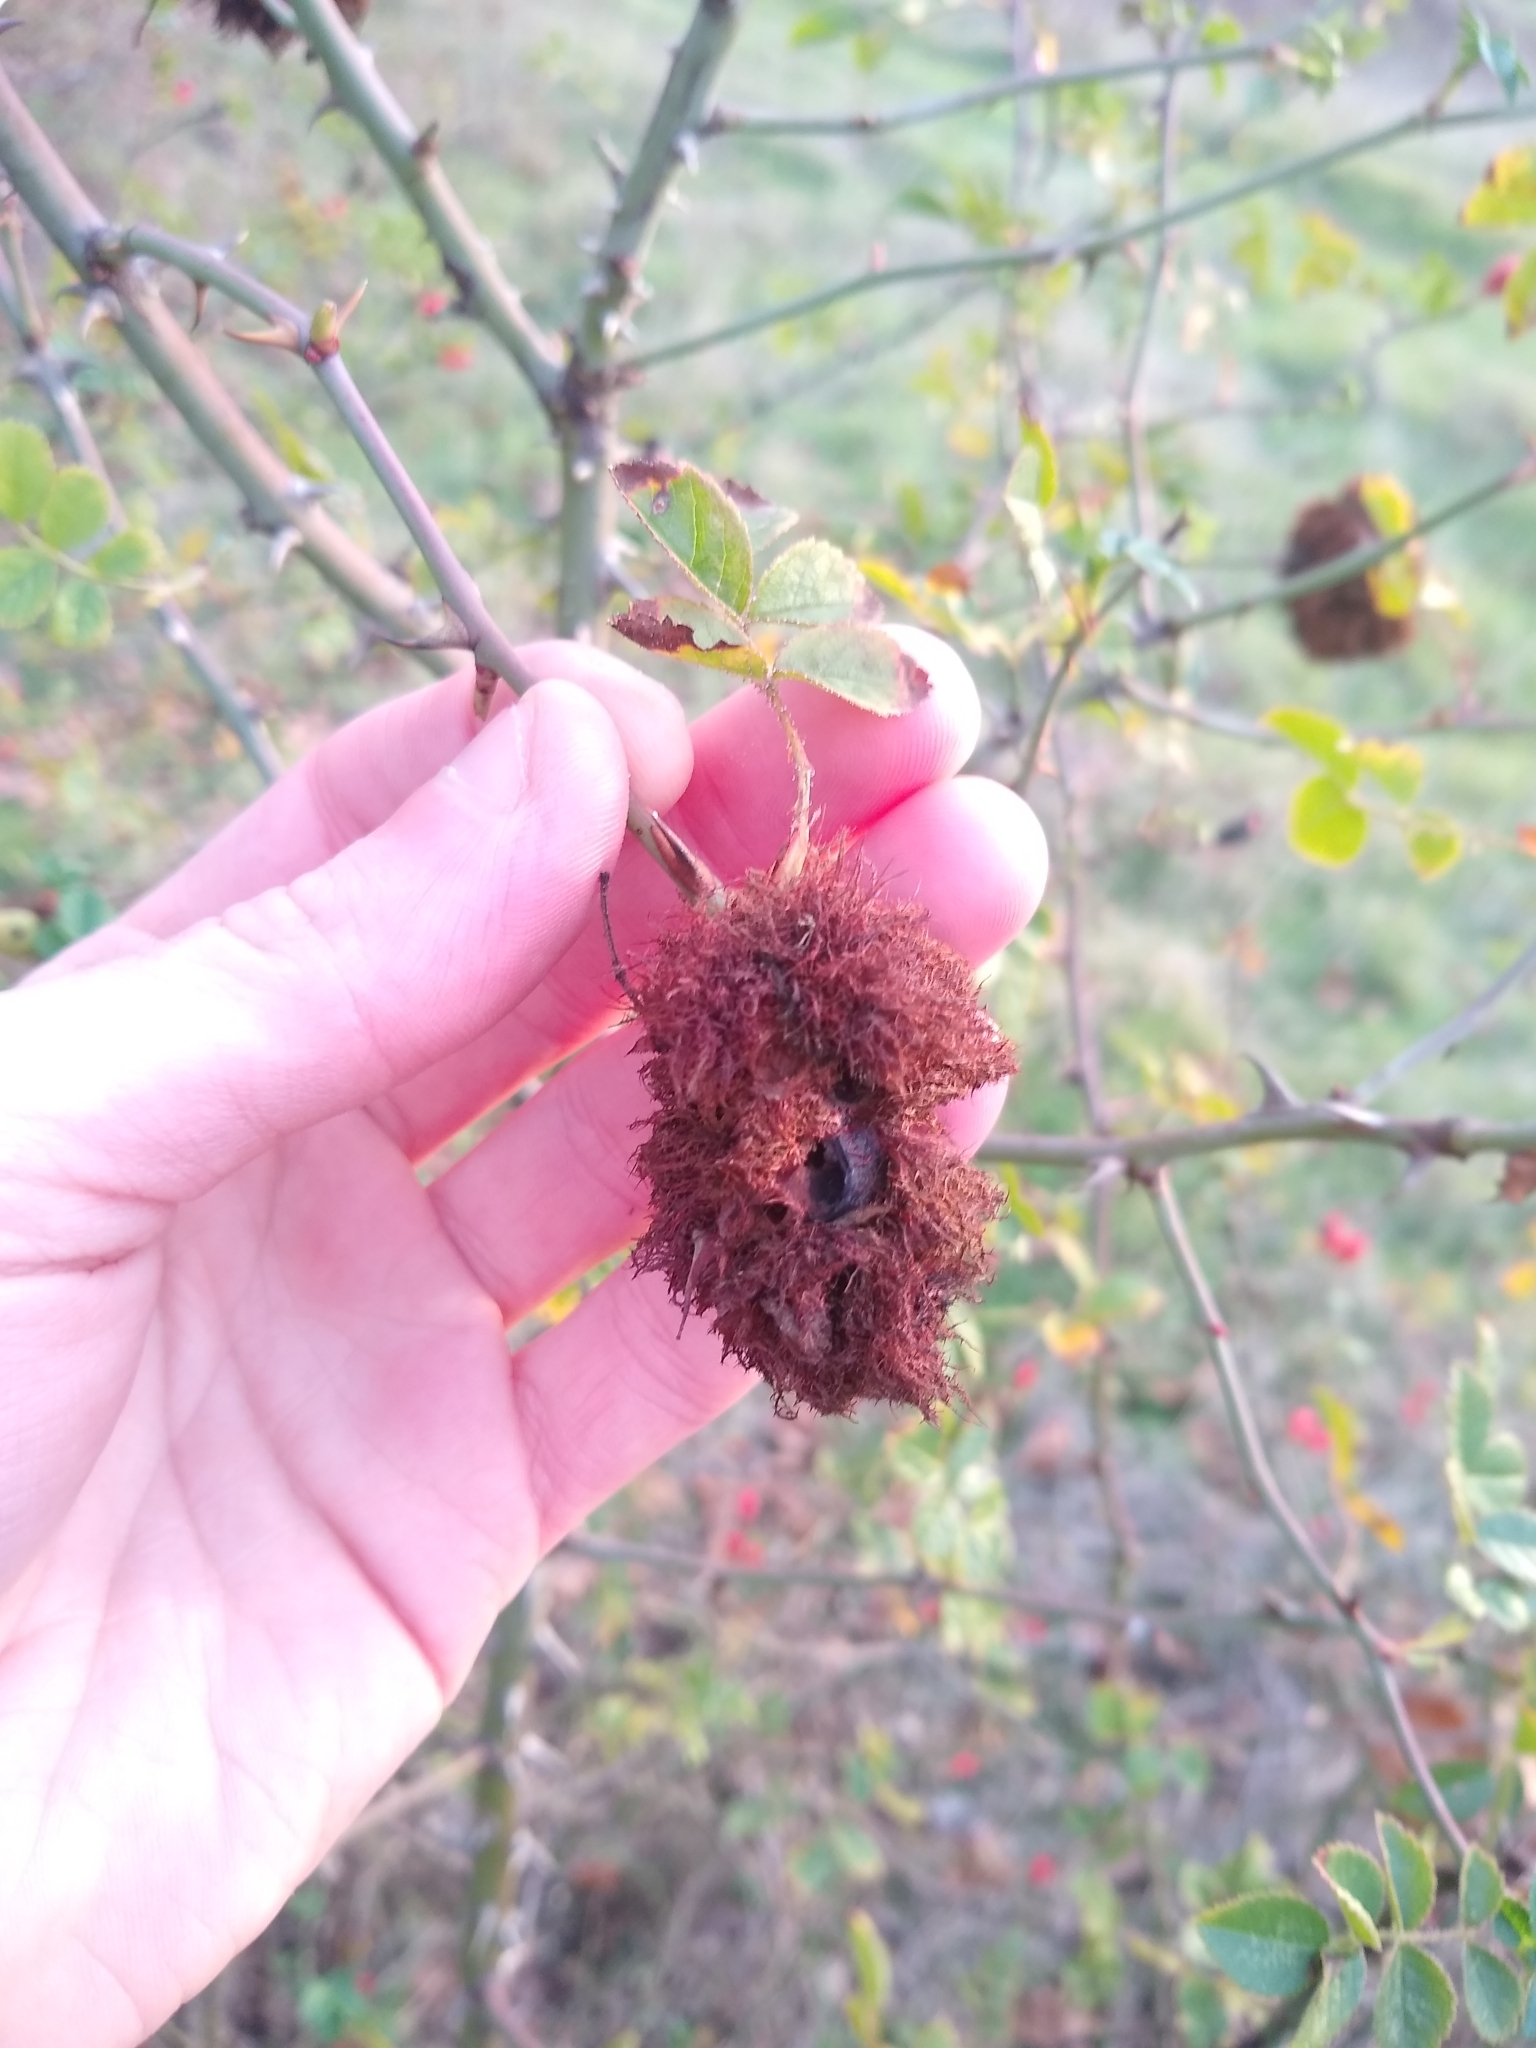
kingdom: Animalia
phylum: Arthropoda
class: Insecta
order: Hymenoptera
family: Cynipidae
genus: Diplolepis
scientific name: Diplolepis rosae
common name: Bedeguar gall
